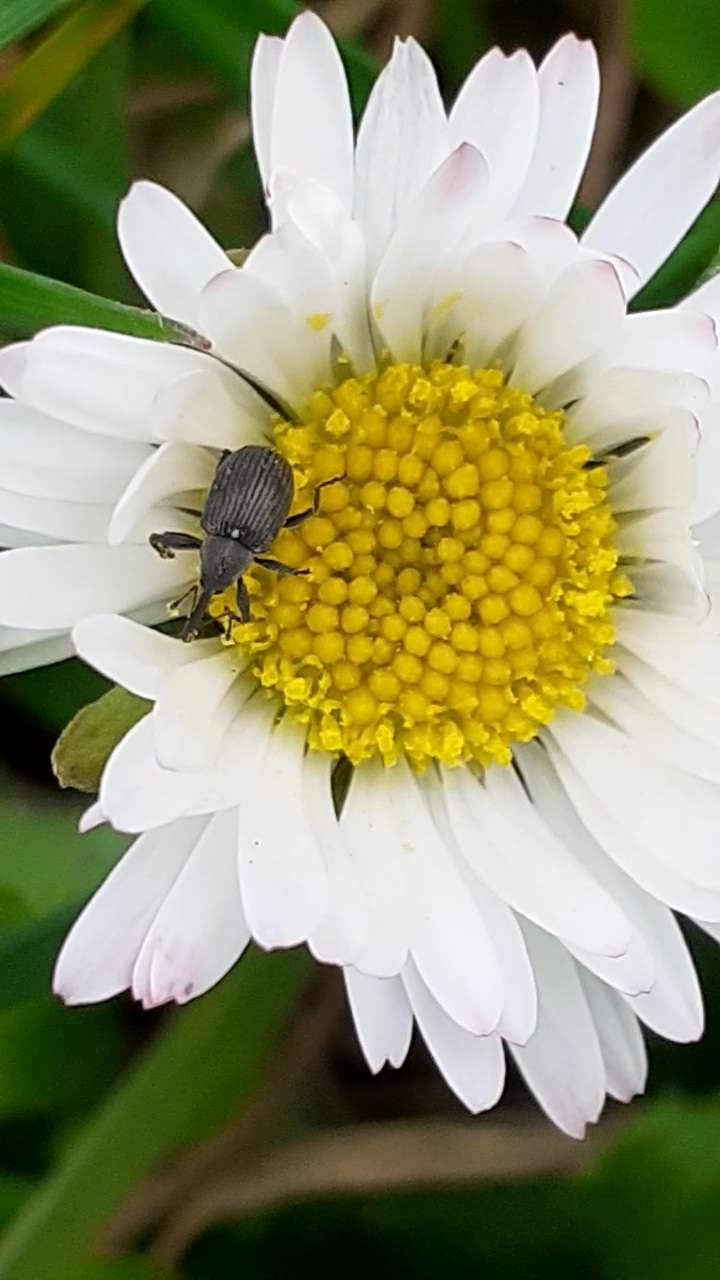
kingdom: Animalia
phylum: Arthropoda
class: Insecta
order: Coleoptera
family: Curculionidae
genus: Anthonomus
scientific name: Anthonomus rubi
